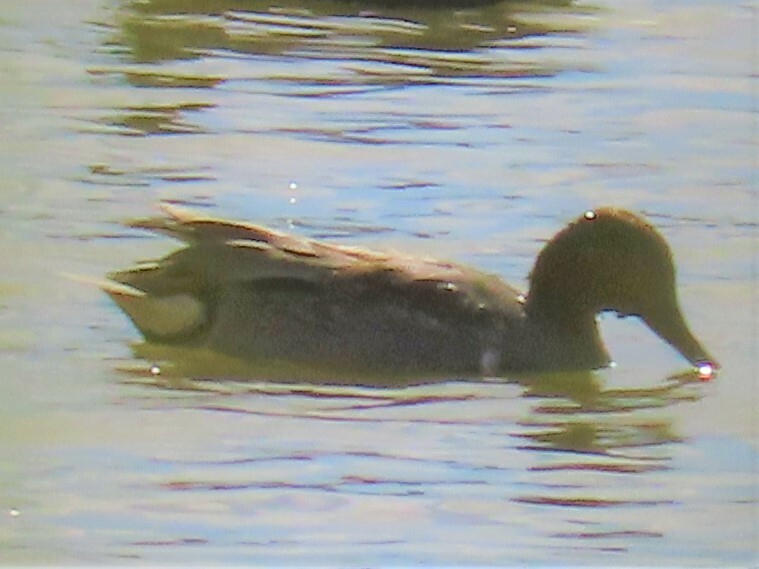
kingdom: Animalia
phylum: Chordata
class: Aves
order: Anseriformes
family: Anatidae
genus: Anas
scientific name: Anas crecca
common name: Eurasian teal
